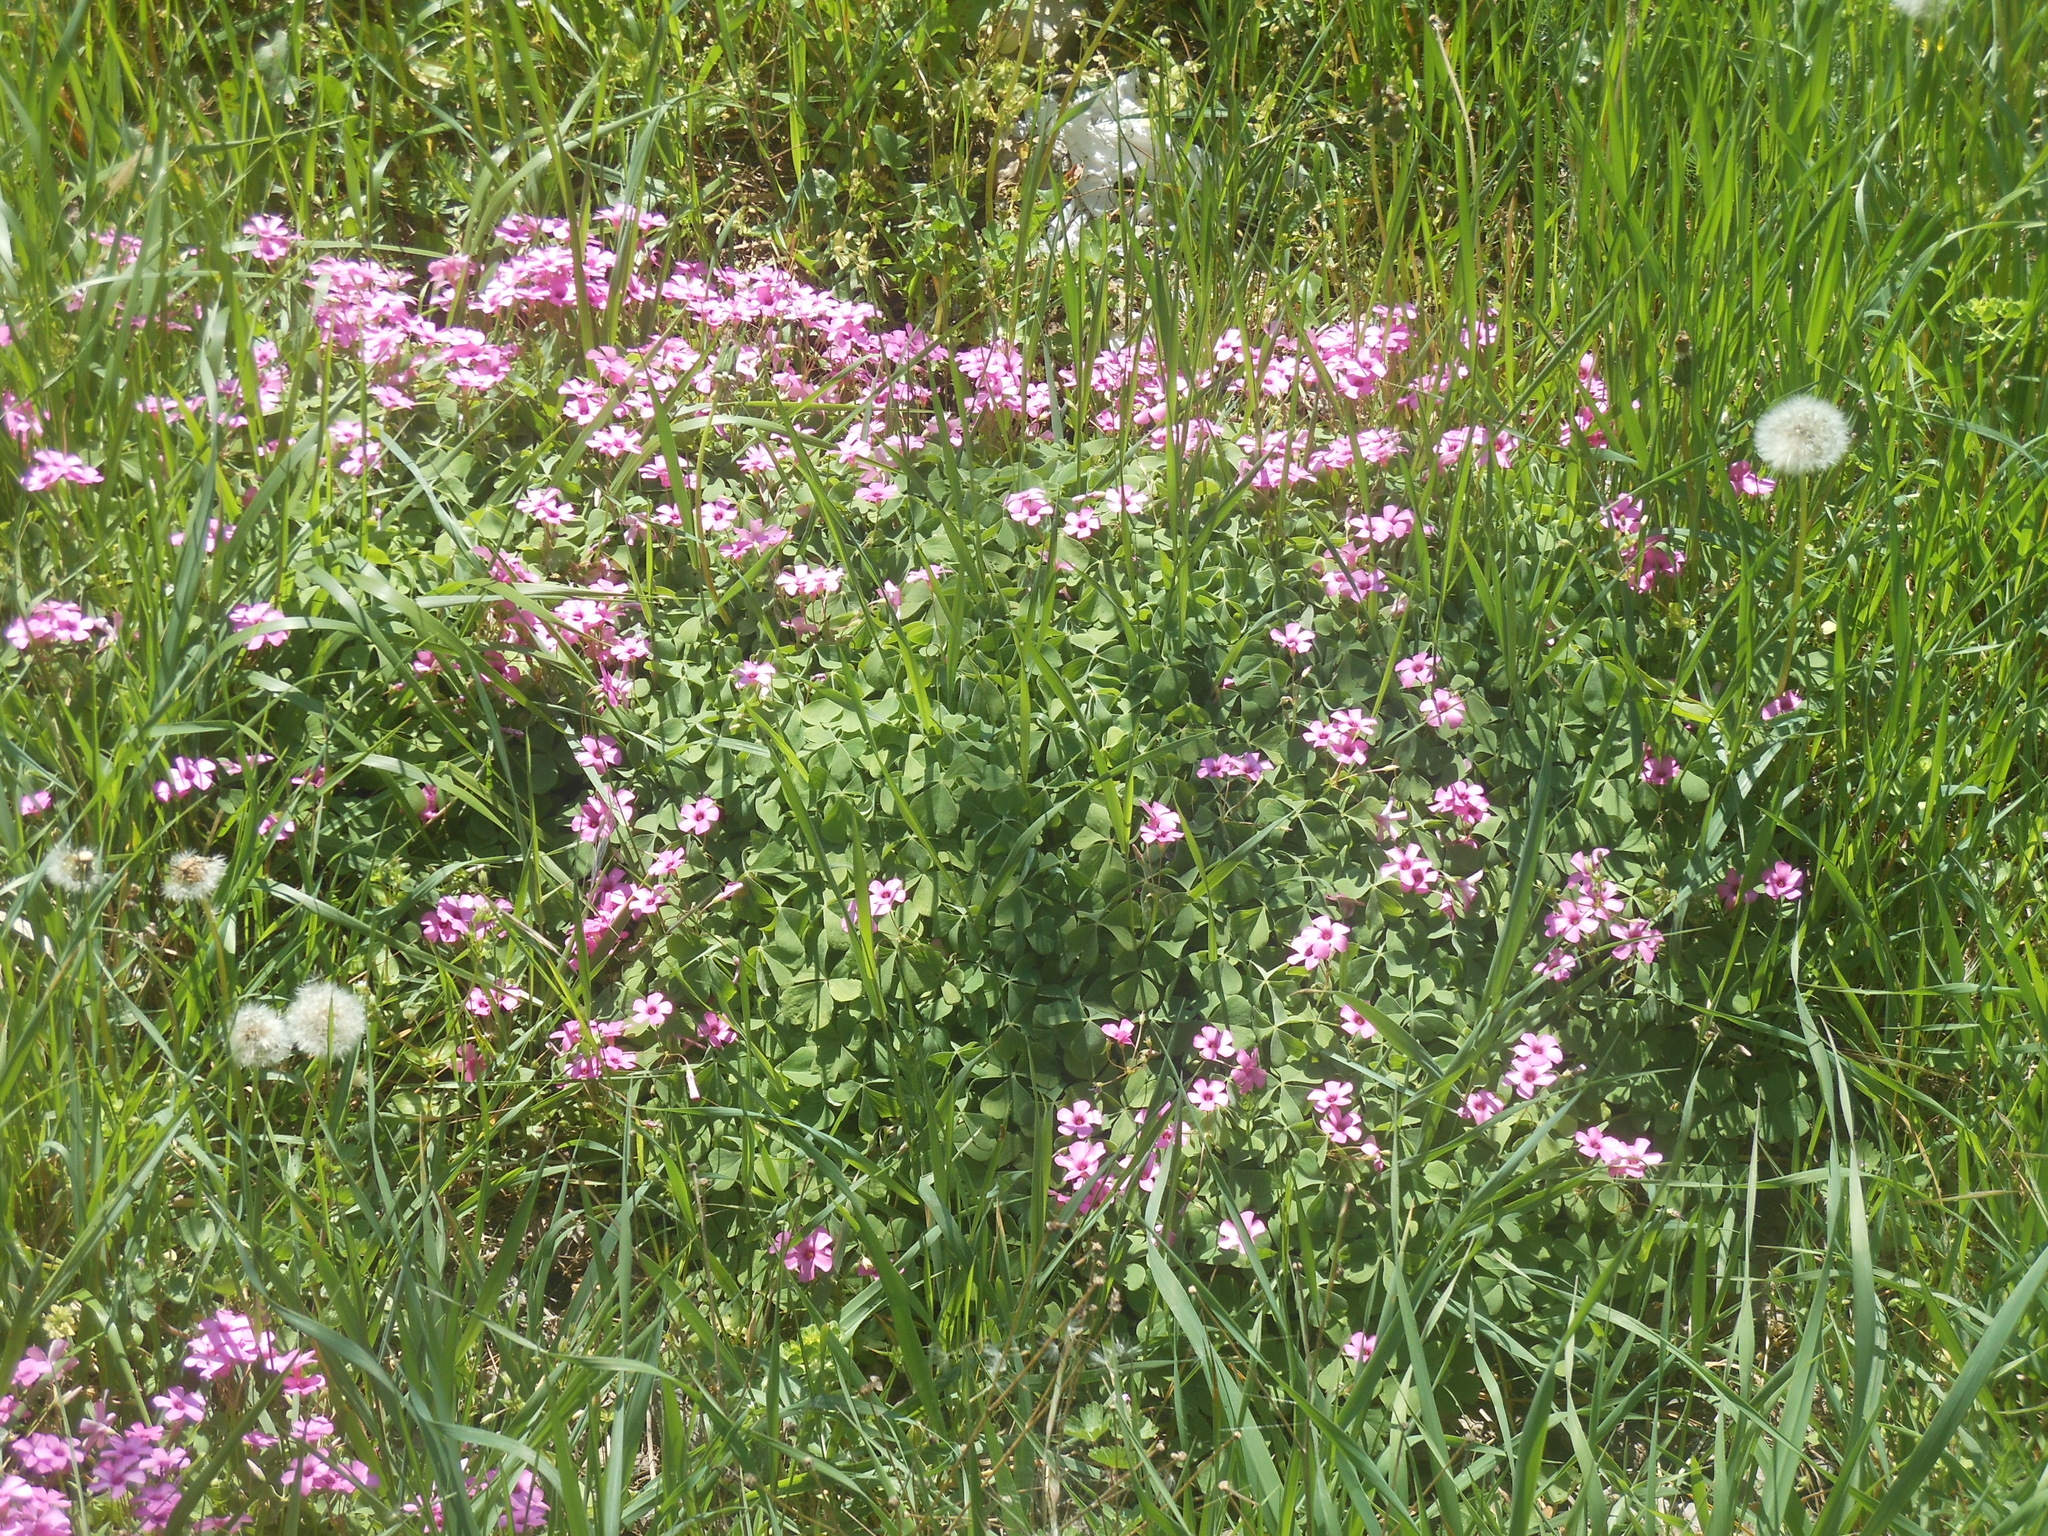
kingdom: Plantae
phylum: Tracheophyta
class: Magnoliopsida
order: Oxalidales
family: Oxalidaceae
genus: Oxalis
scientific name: Oxalis articulata
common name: Pink-sorrel
